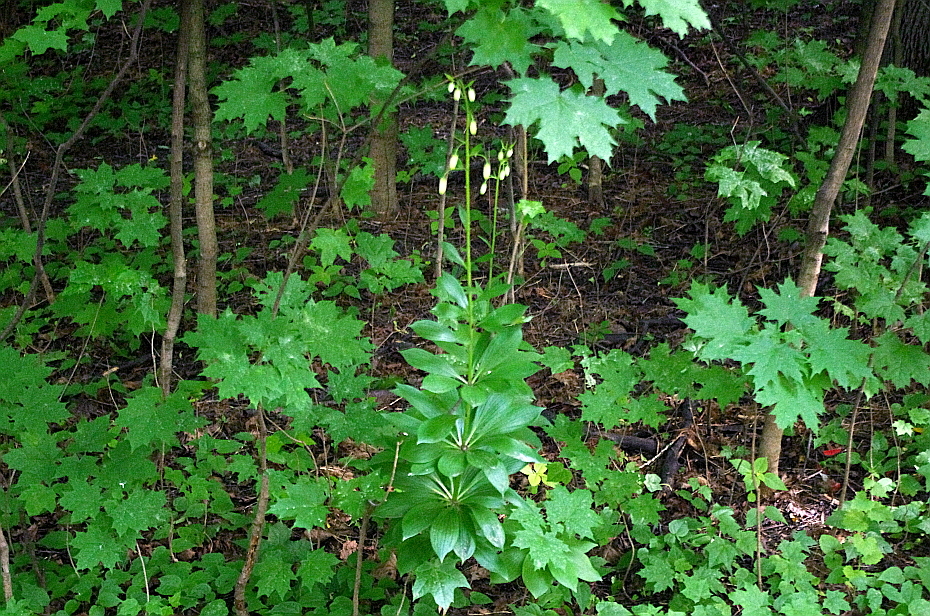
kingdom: Plantae
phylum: Tracheophyta
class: Liliopsida
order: Liliales
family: Liliaceae
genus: Lilium
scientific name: Lilium martagon
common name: Martagon lily
